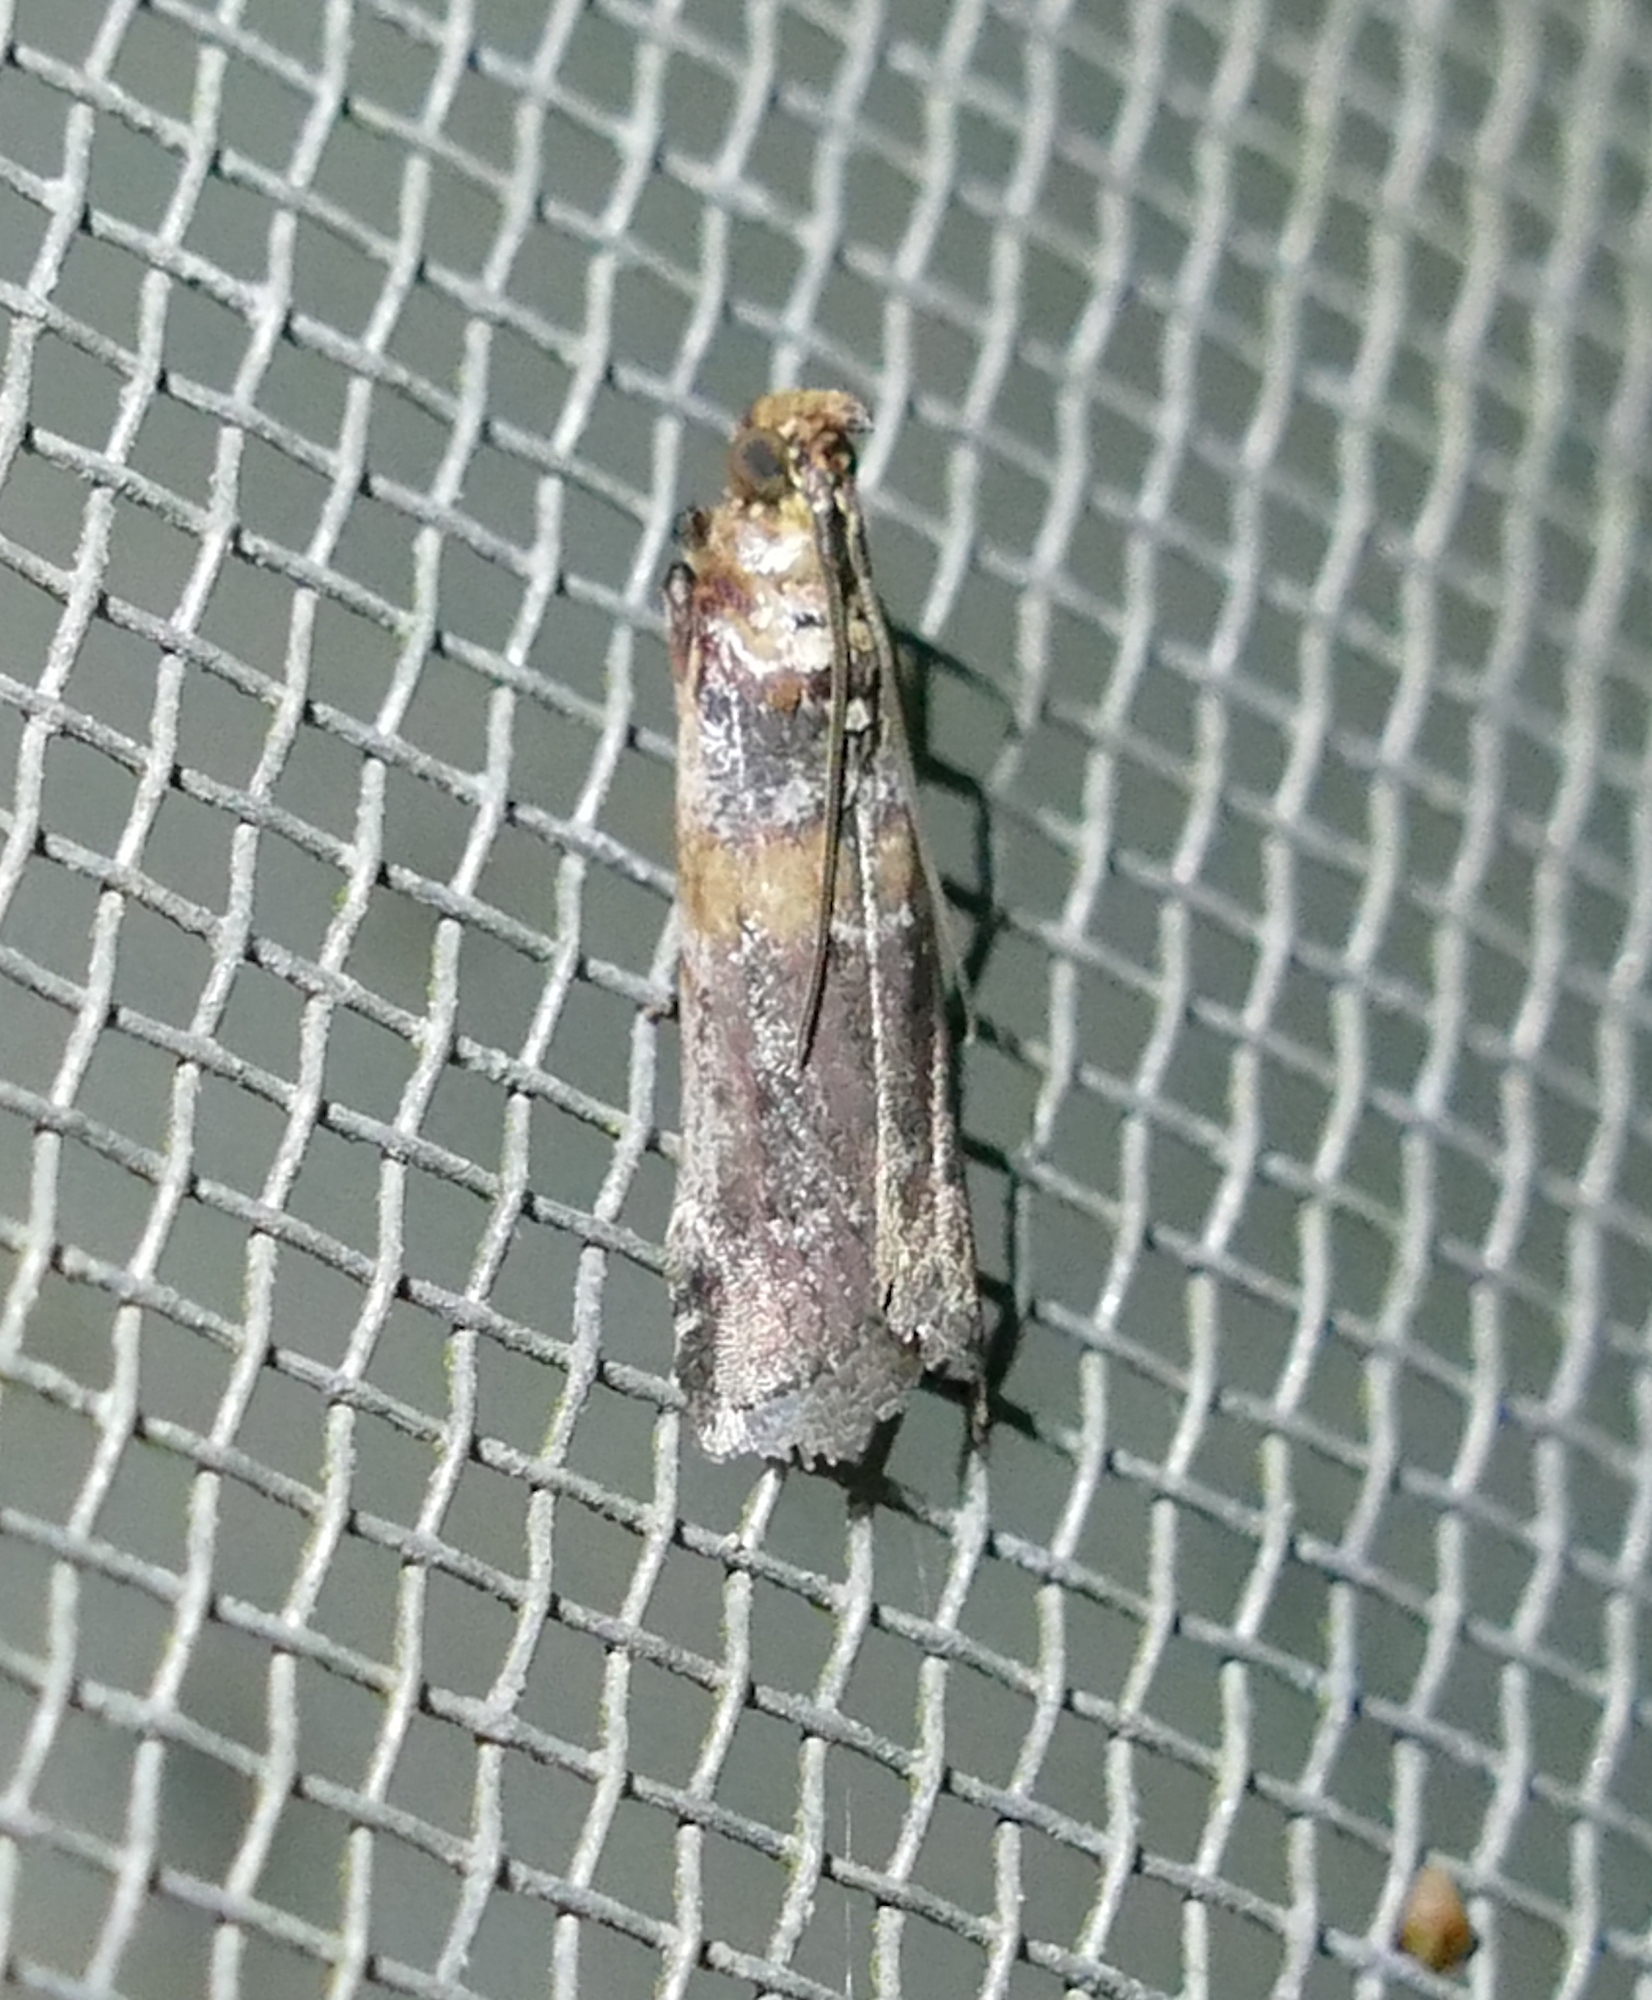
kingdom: Animalia
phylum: Arthropoda
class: Insecta
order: Lepidoptera
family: Pyralidae
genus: Adelphia
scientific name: Adelphia petrella
